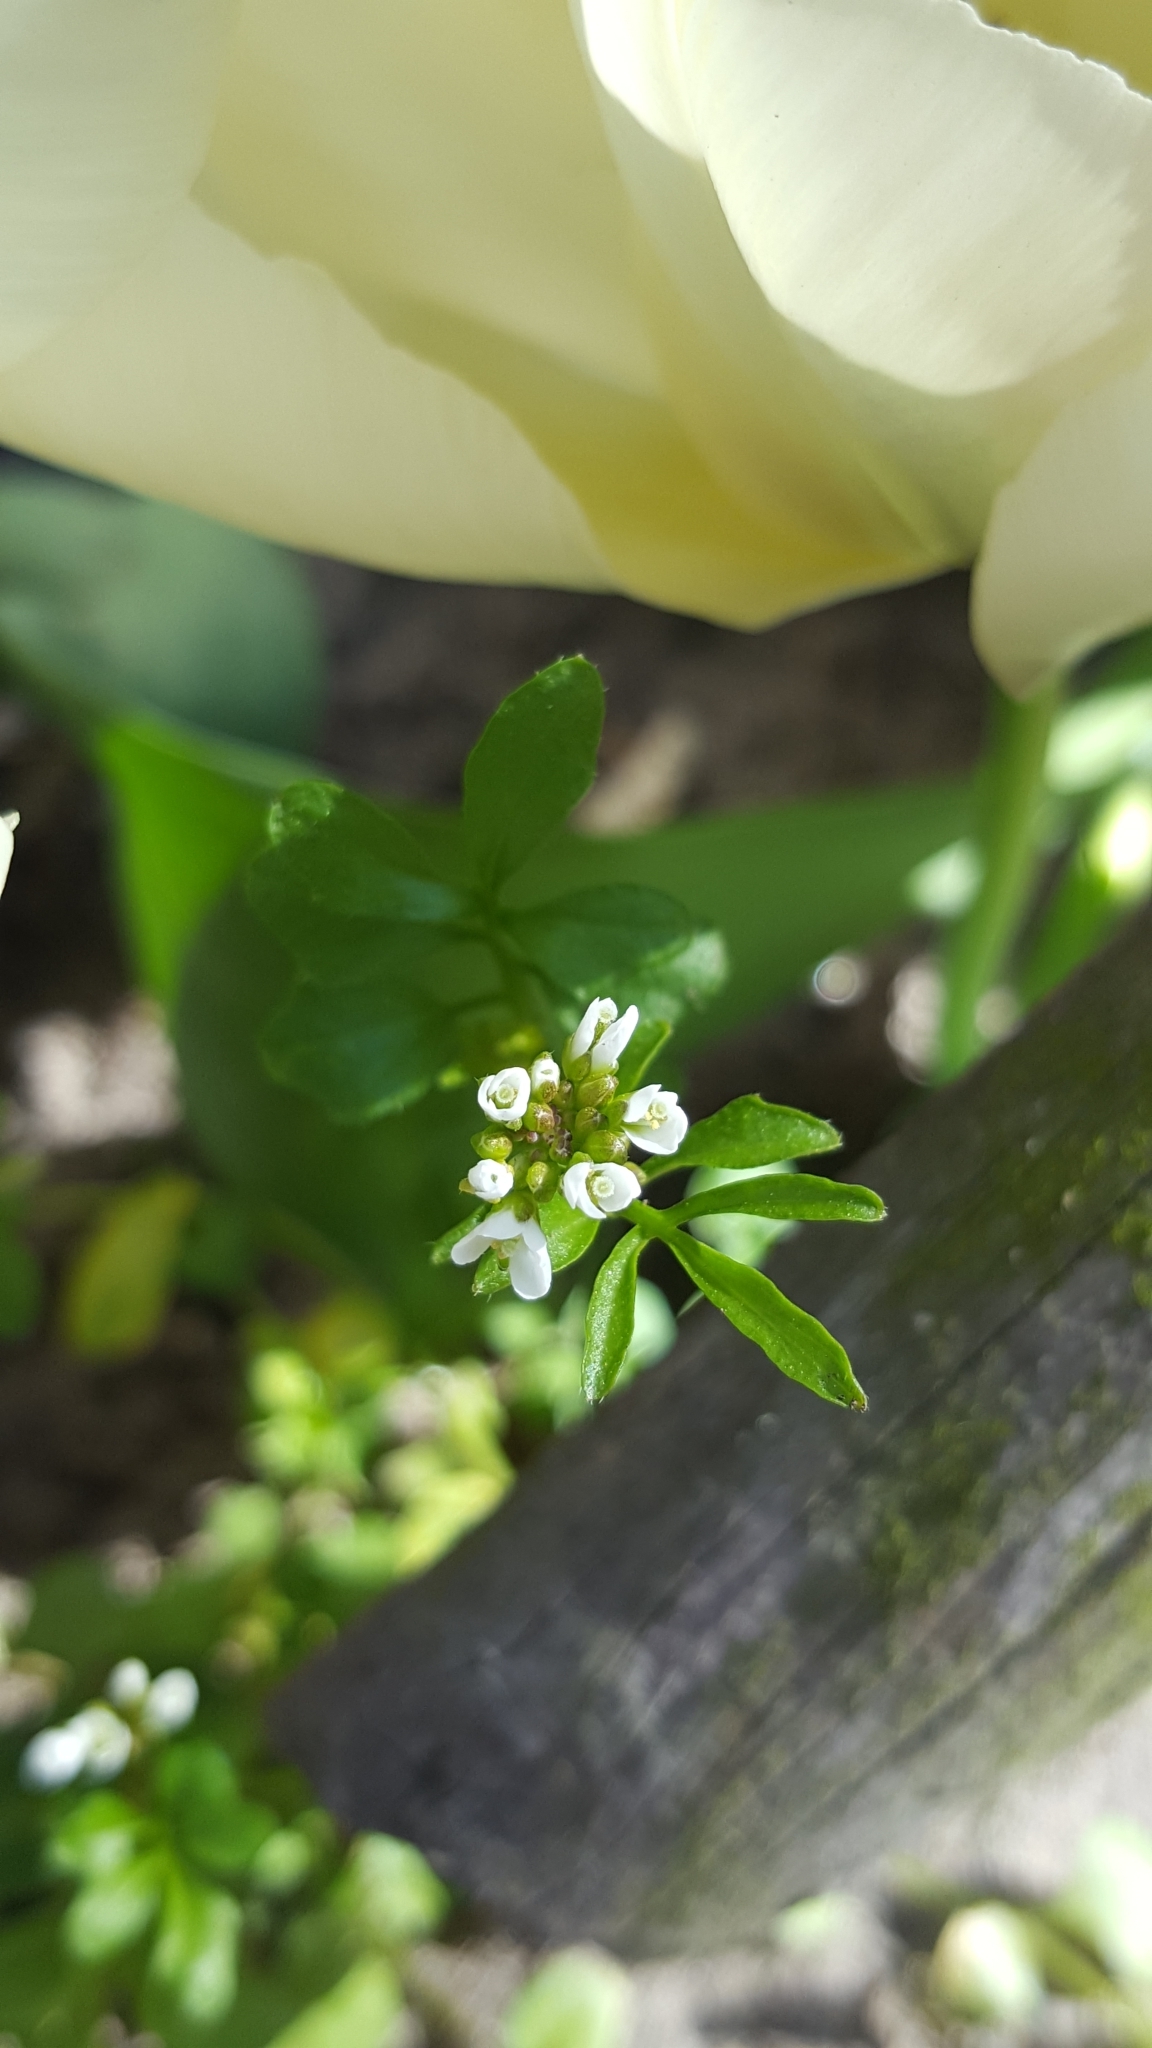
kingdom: Plantae
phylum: Tracheophyta
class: Magnoliopsida
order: Brassicales
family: Brassicaceae
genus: Cardamine
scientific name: Cardamine hirsuta
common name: Hairy bittercress
